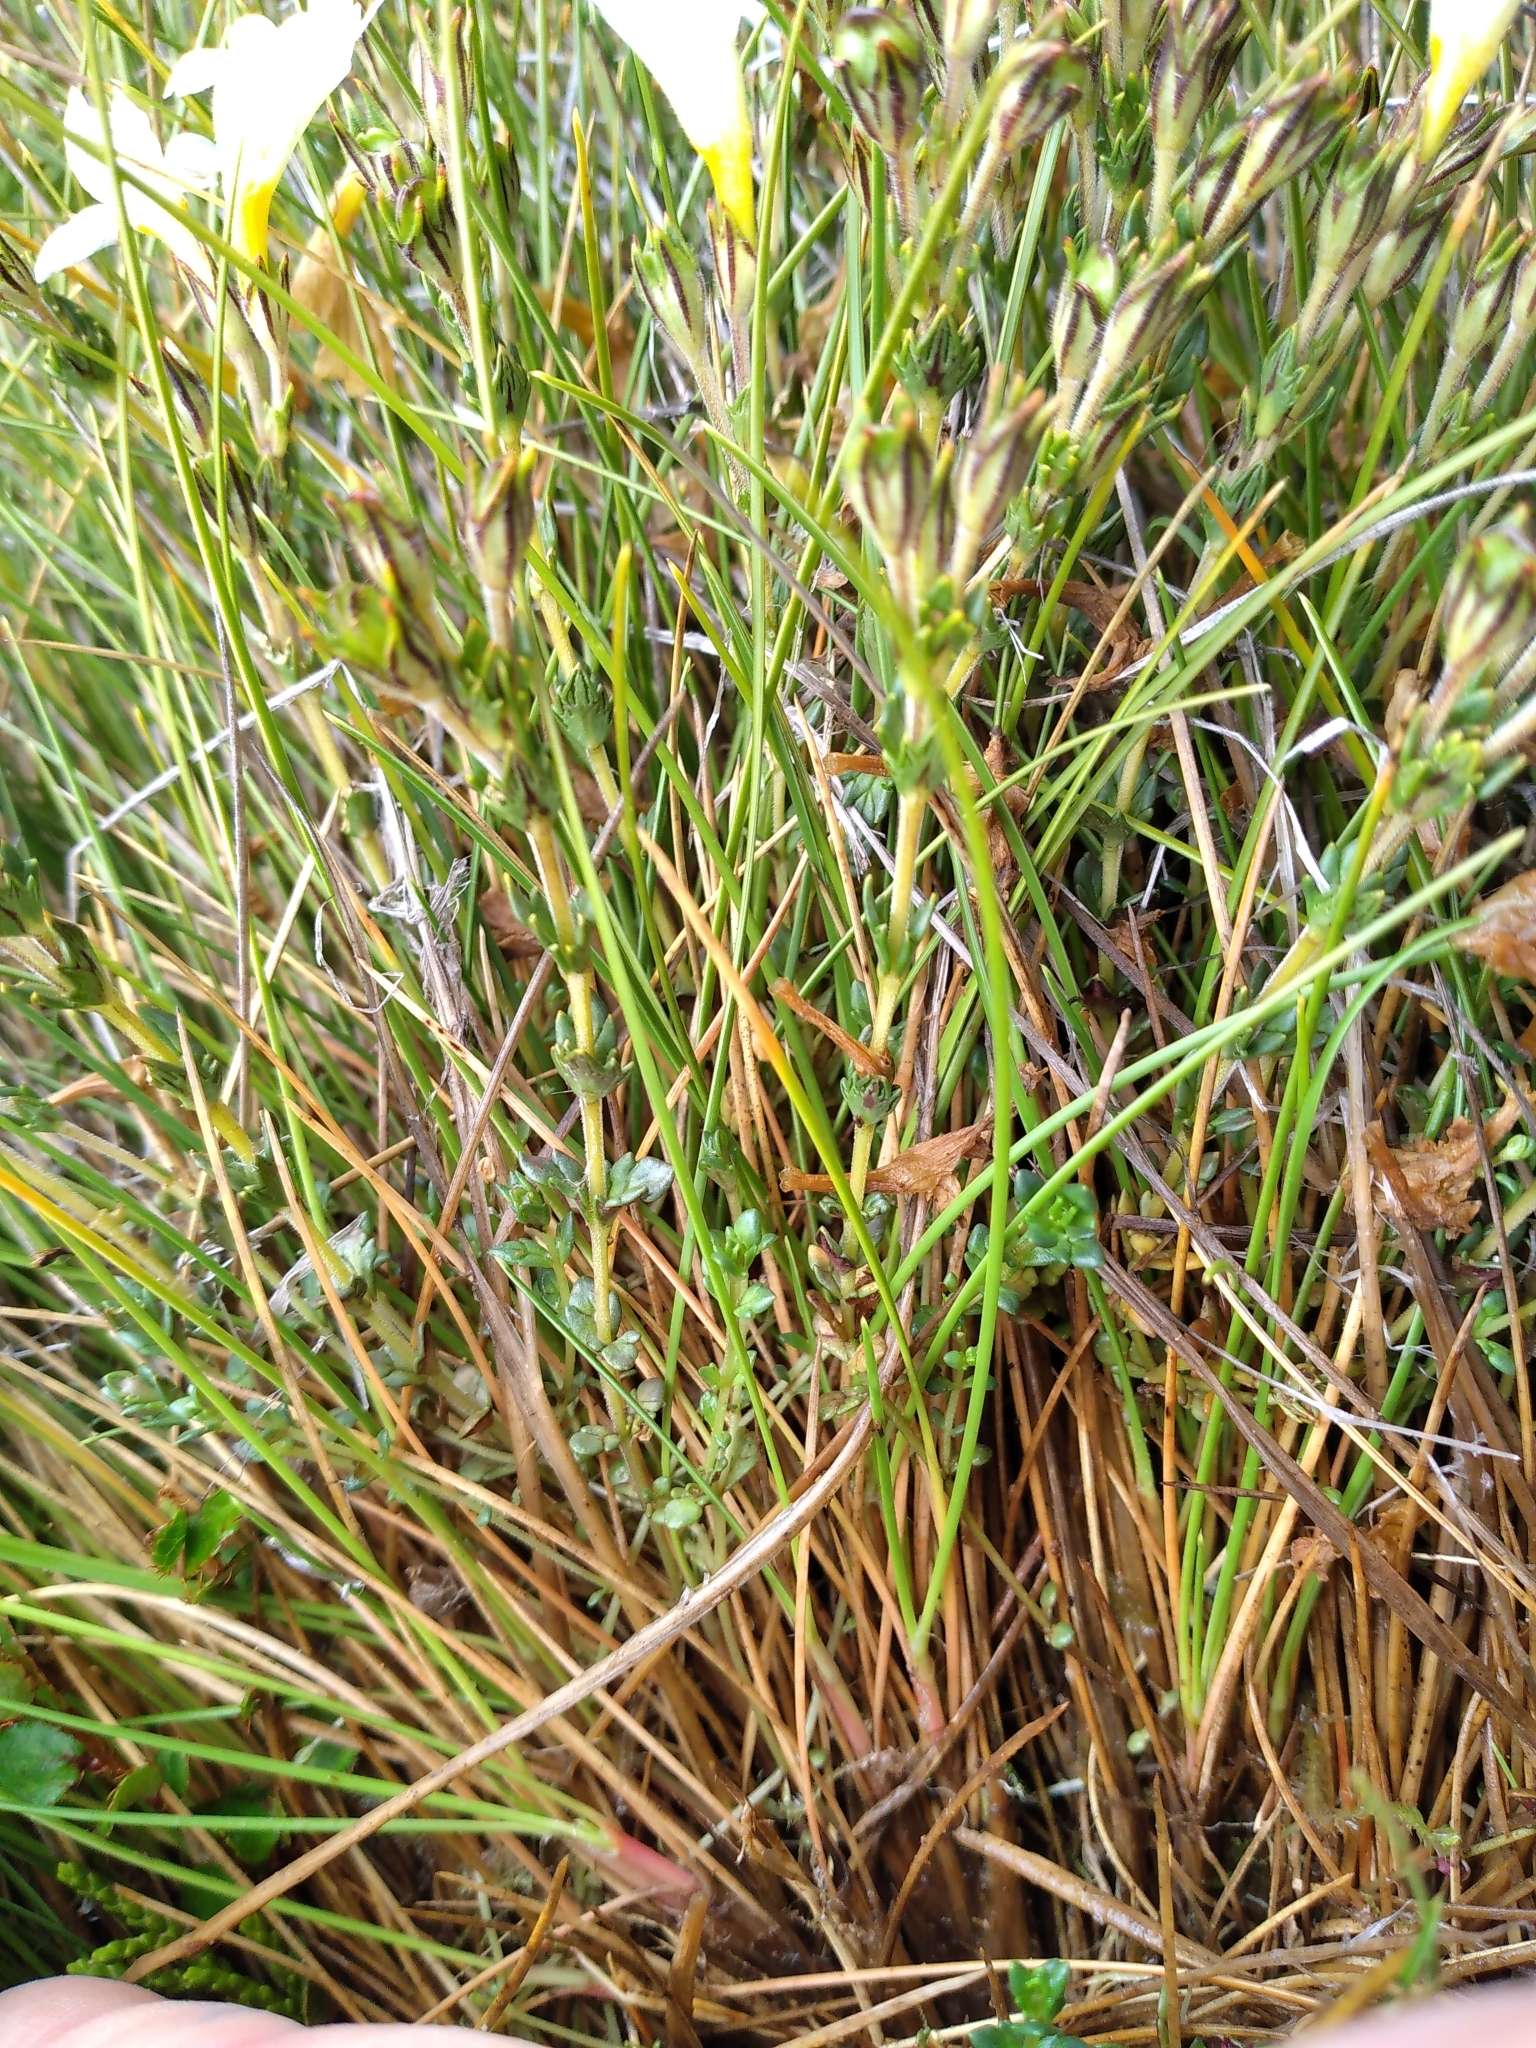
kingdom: Plantae
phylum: Tracheophyta
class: Magnoliopsida
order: Lamiales
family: Orobanchaceae
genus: Euphrasia
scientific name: Euphrasia townsonii
